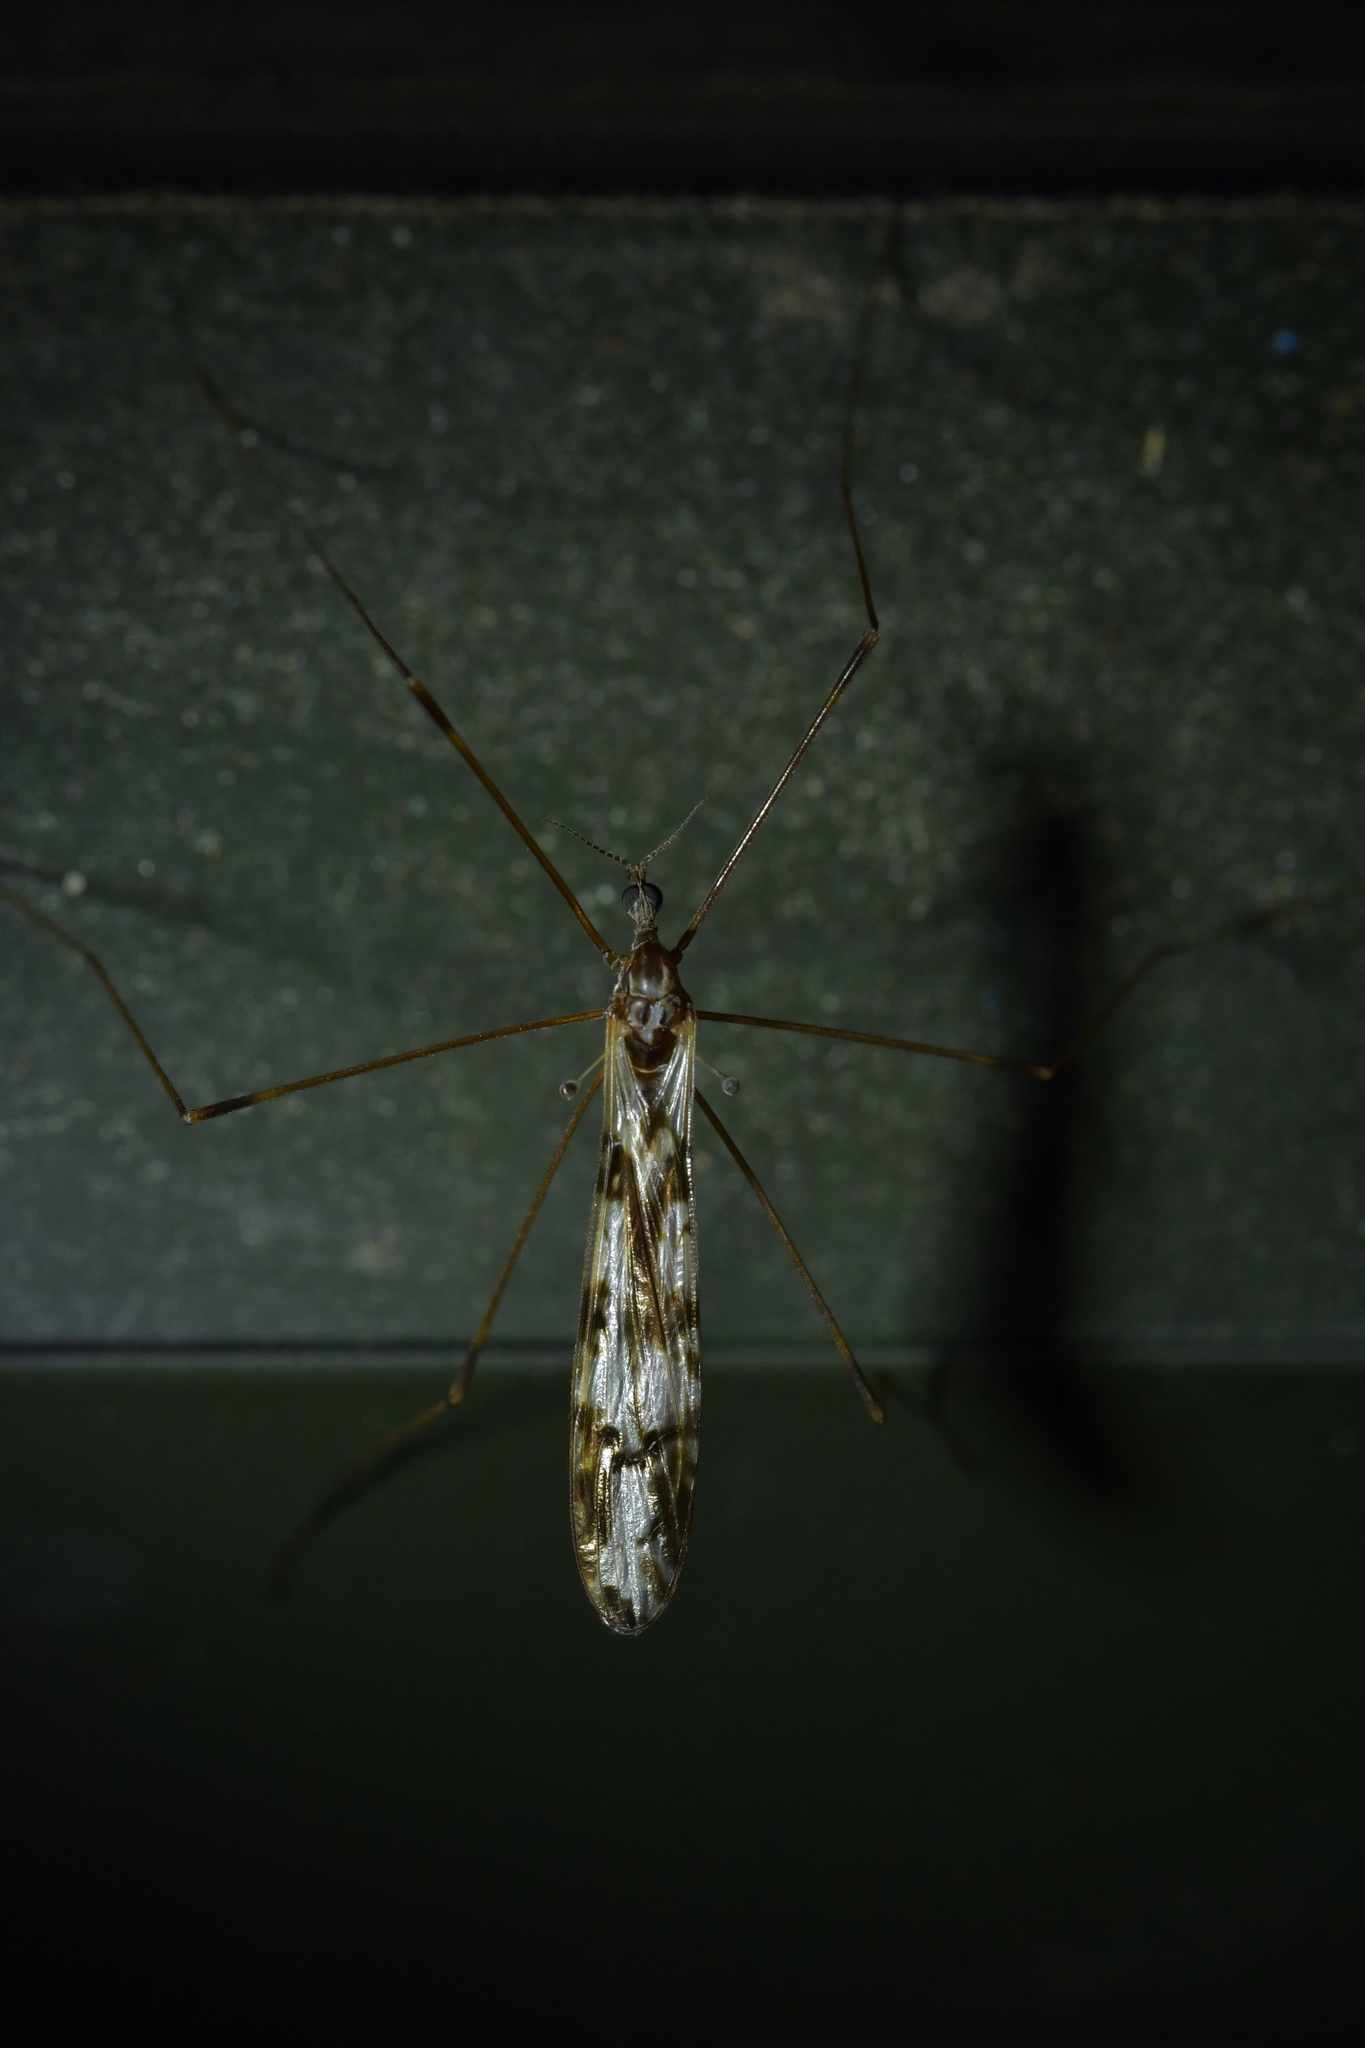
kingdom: Animalia
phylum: Arthropoda
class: Insecta
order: Diptera
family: Limoniidae
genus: Discobola
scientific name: Discobola dohrni
